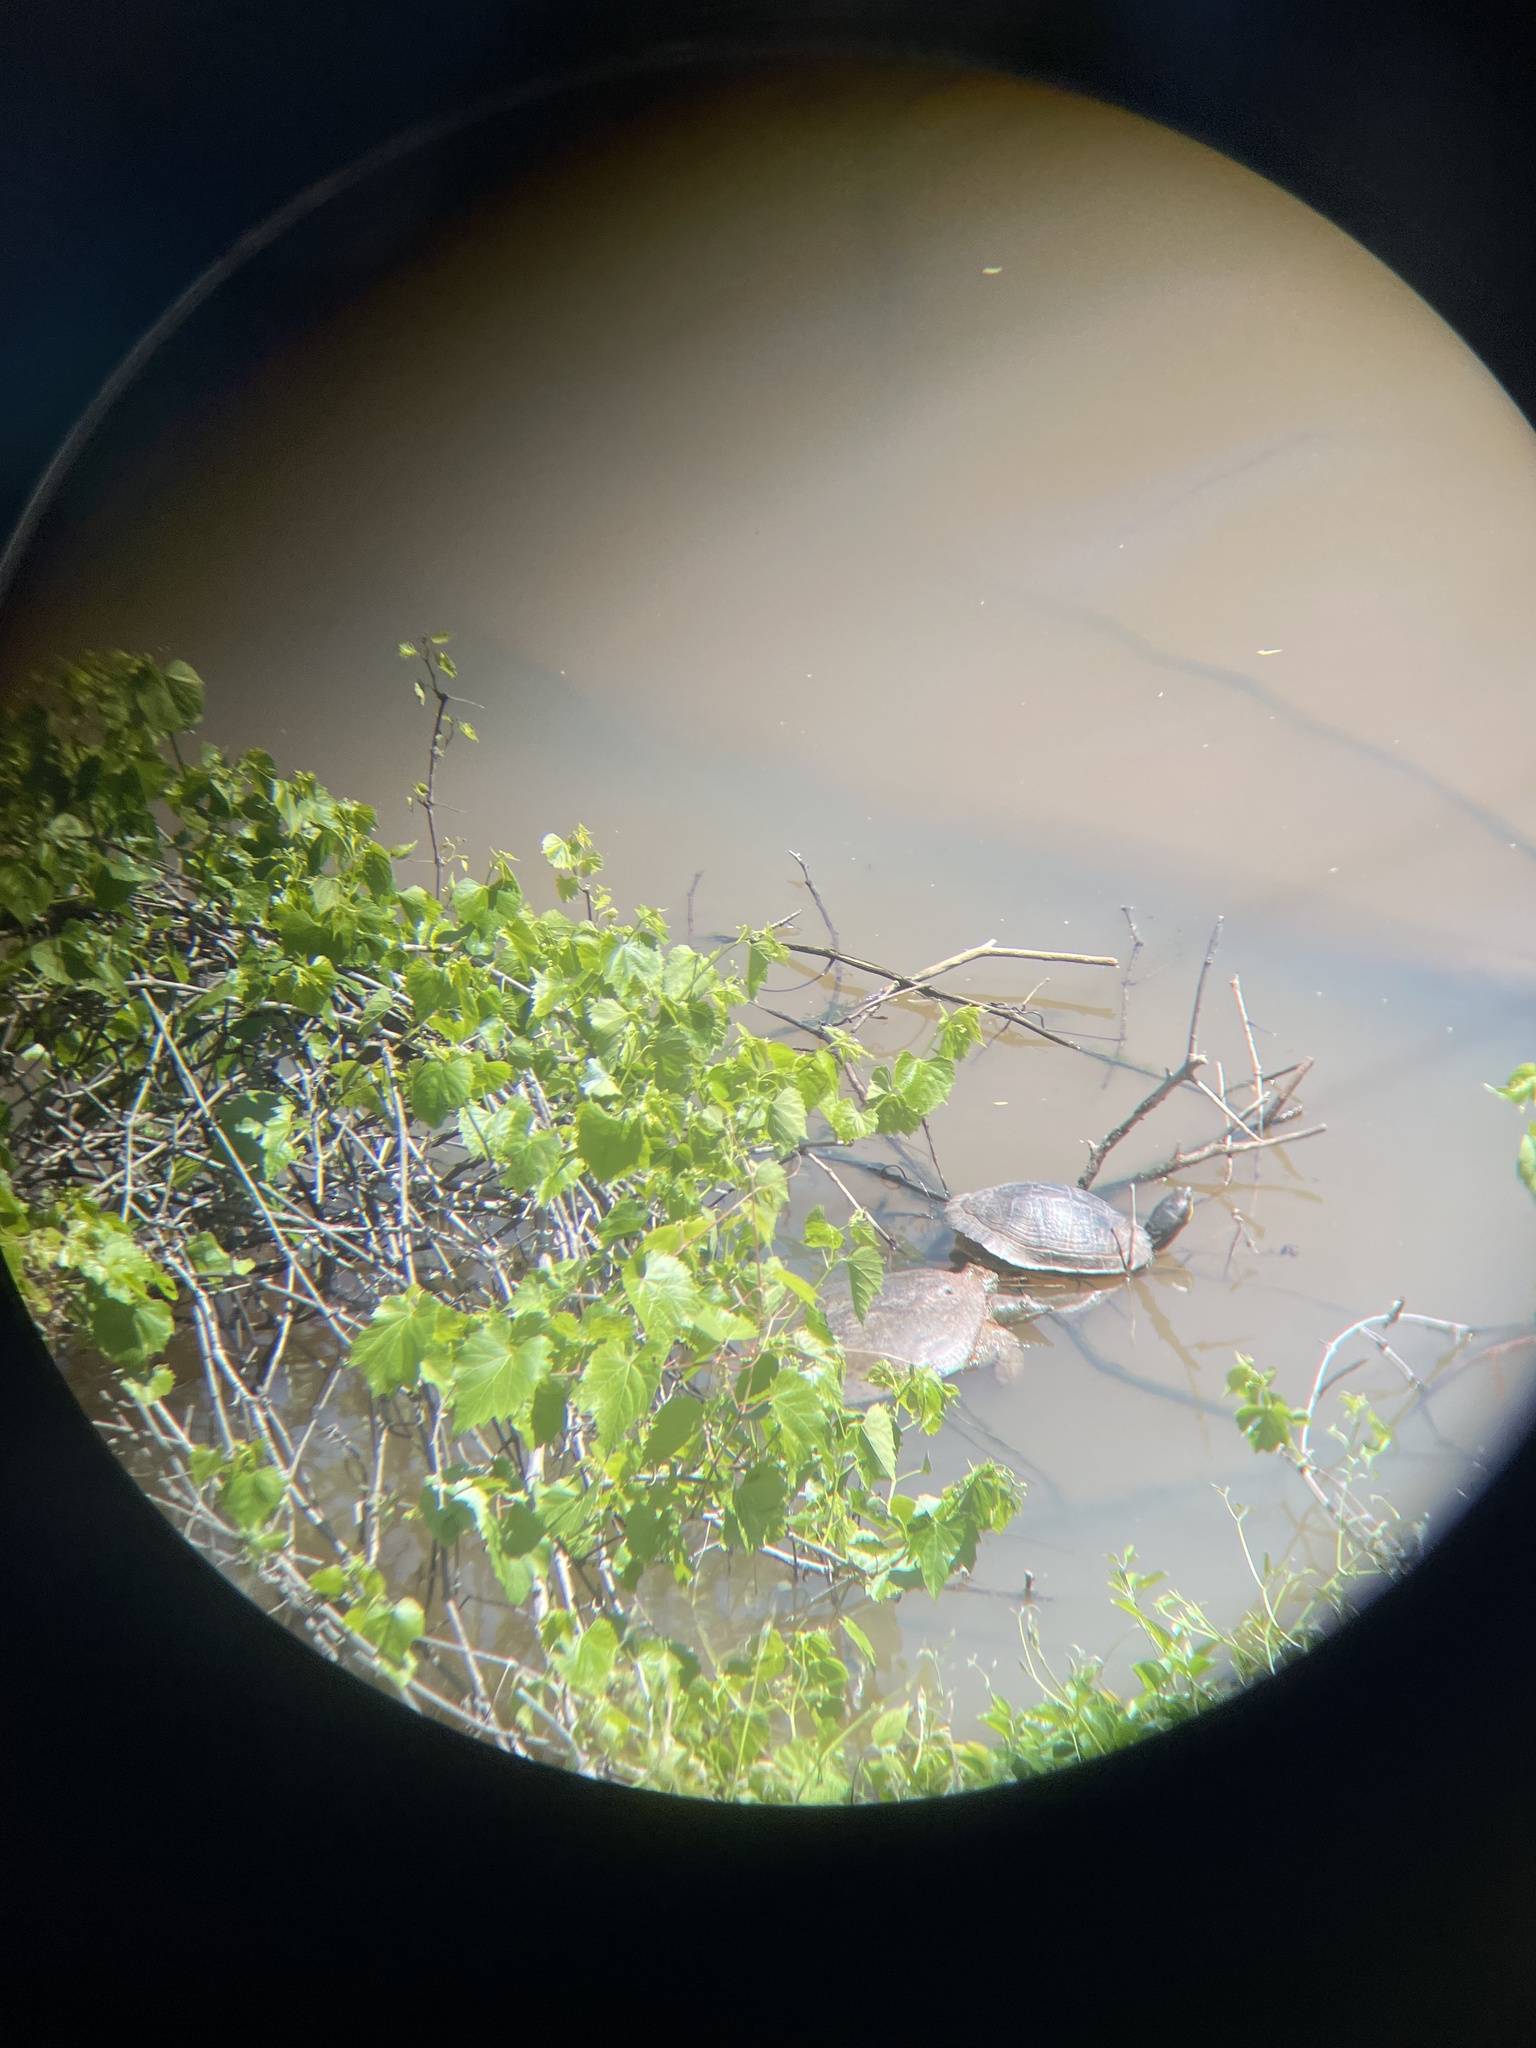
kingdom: Animalia
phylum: Chordata
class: Testudines
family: Trionychidae
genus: Apalone
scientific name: Apalone spinifera
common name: Spiny softshell turtle
